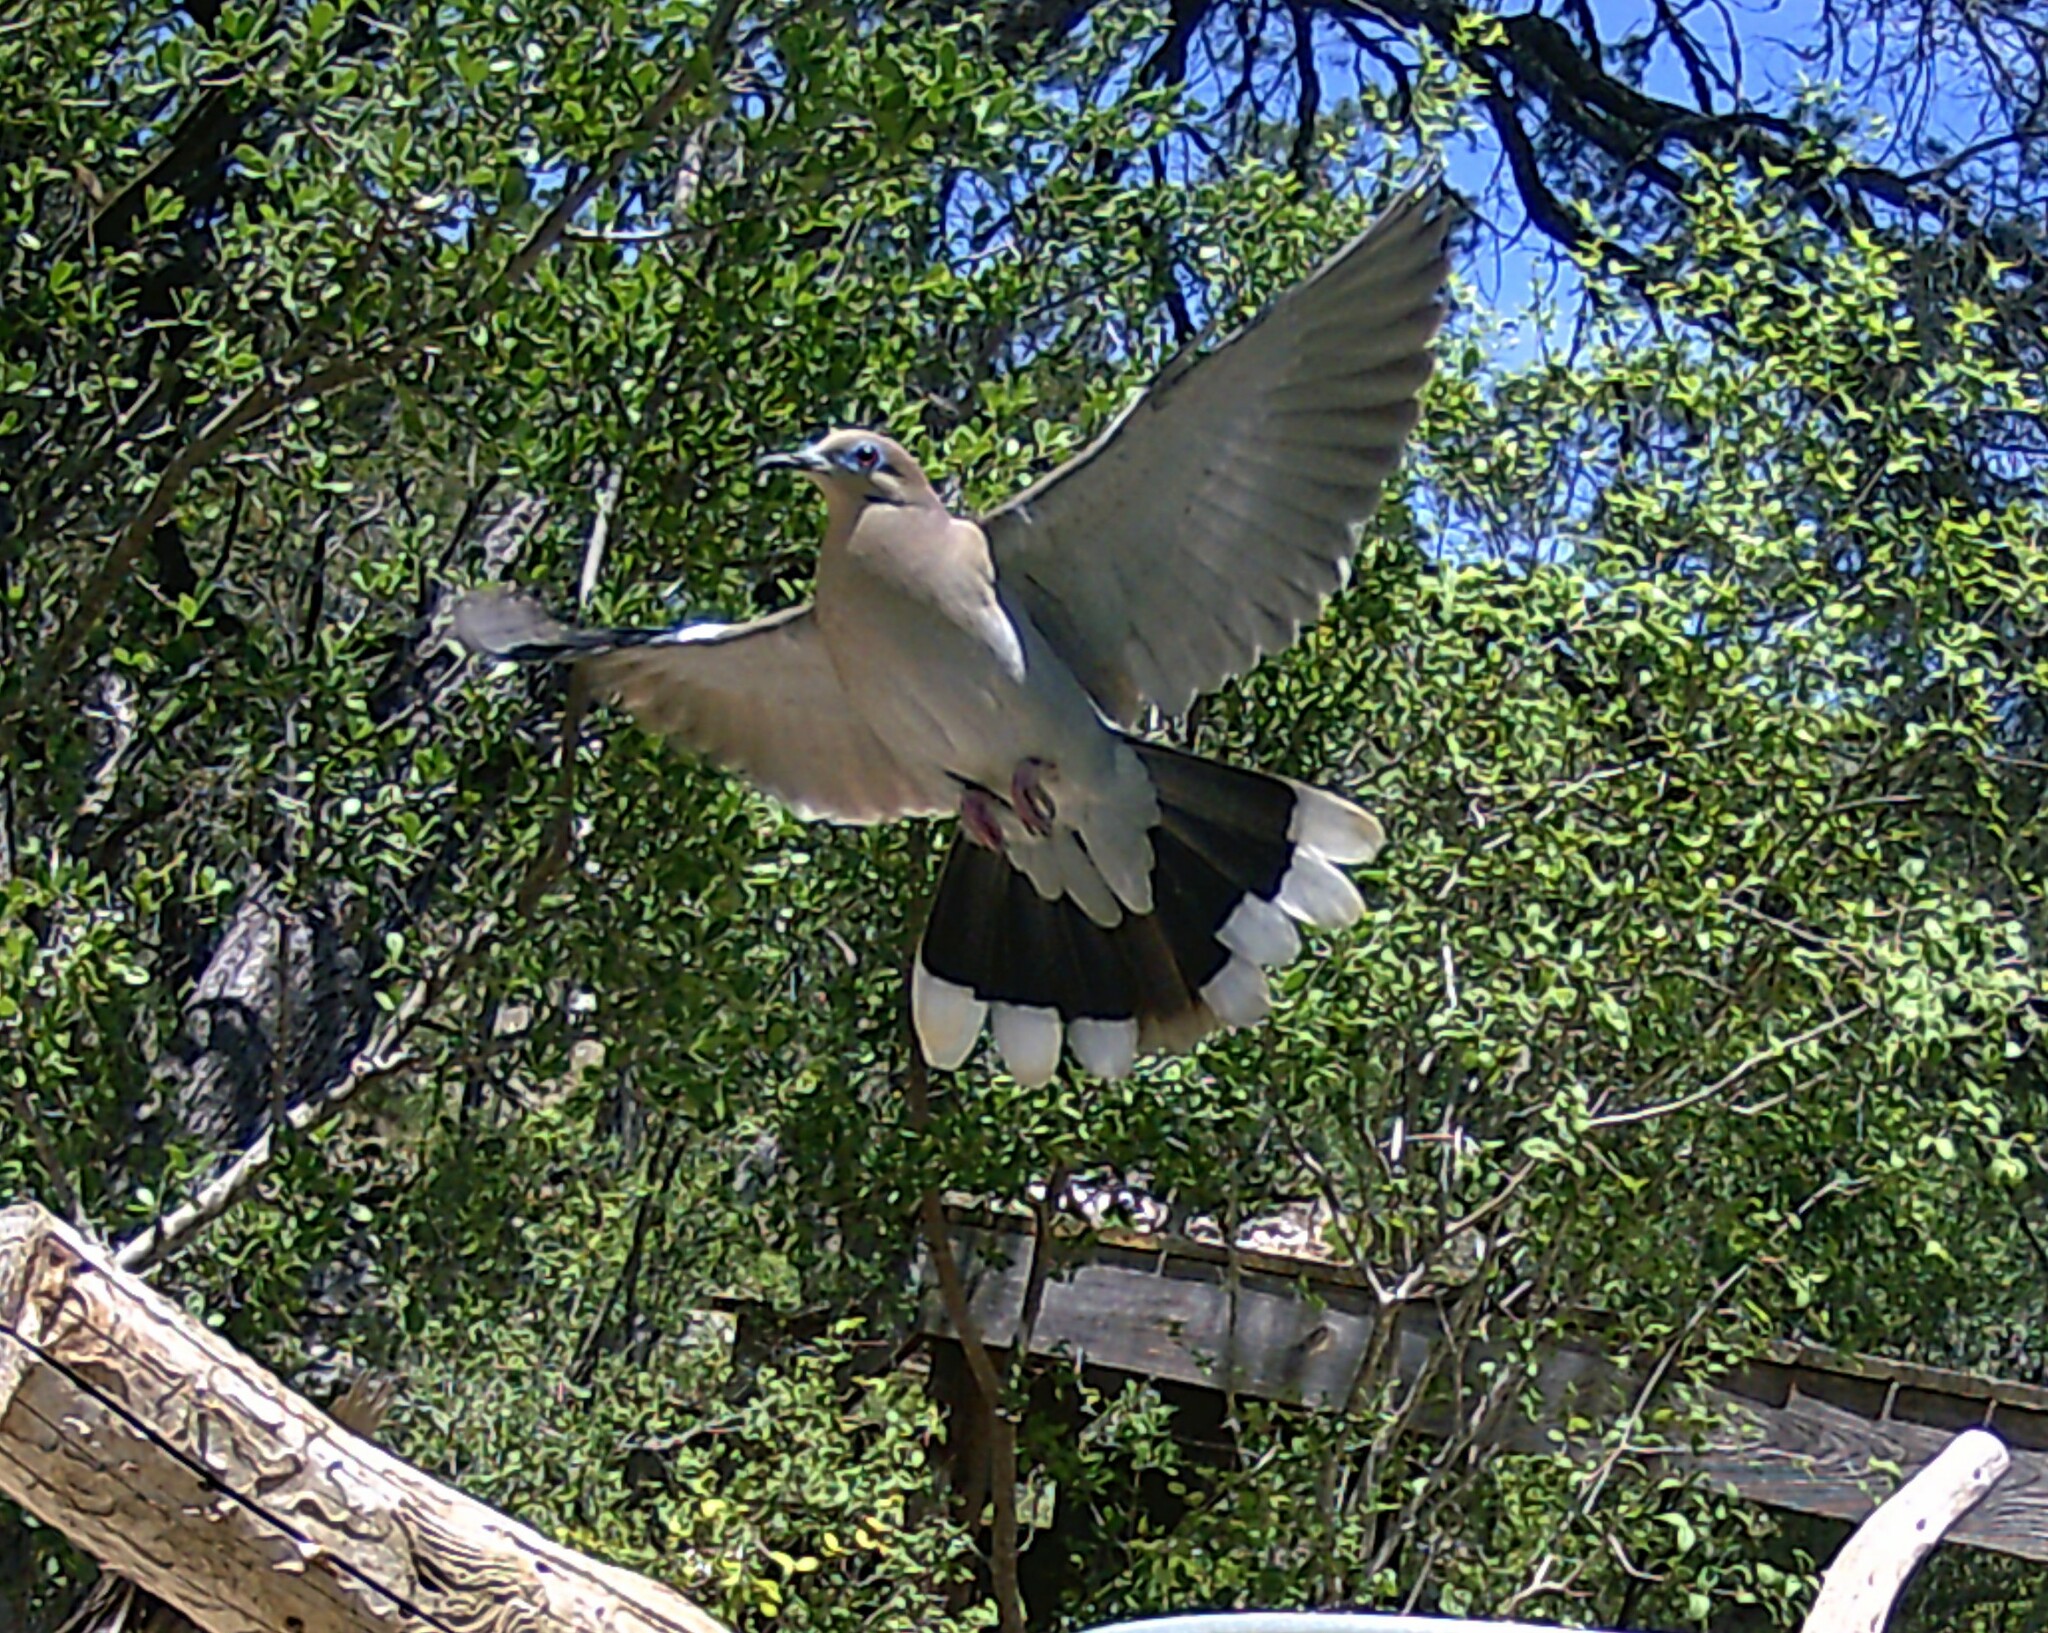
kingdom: Animalia
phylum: Chordata
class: Aves
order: Columbiformes
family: Columbidae
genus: Zenaida
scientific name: Zenaida asiatica
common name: White-winged dove
